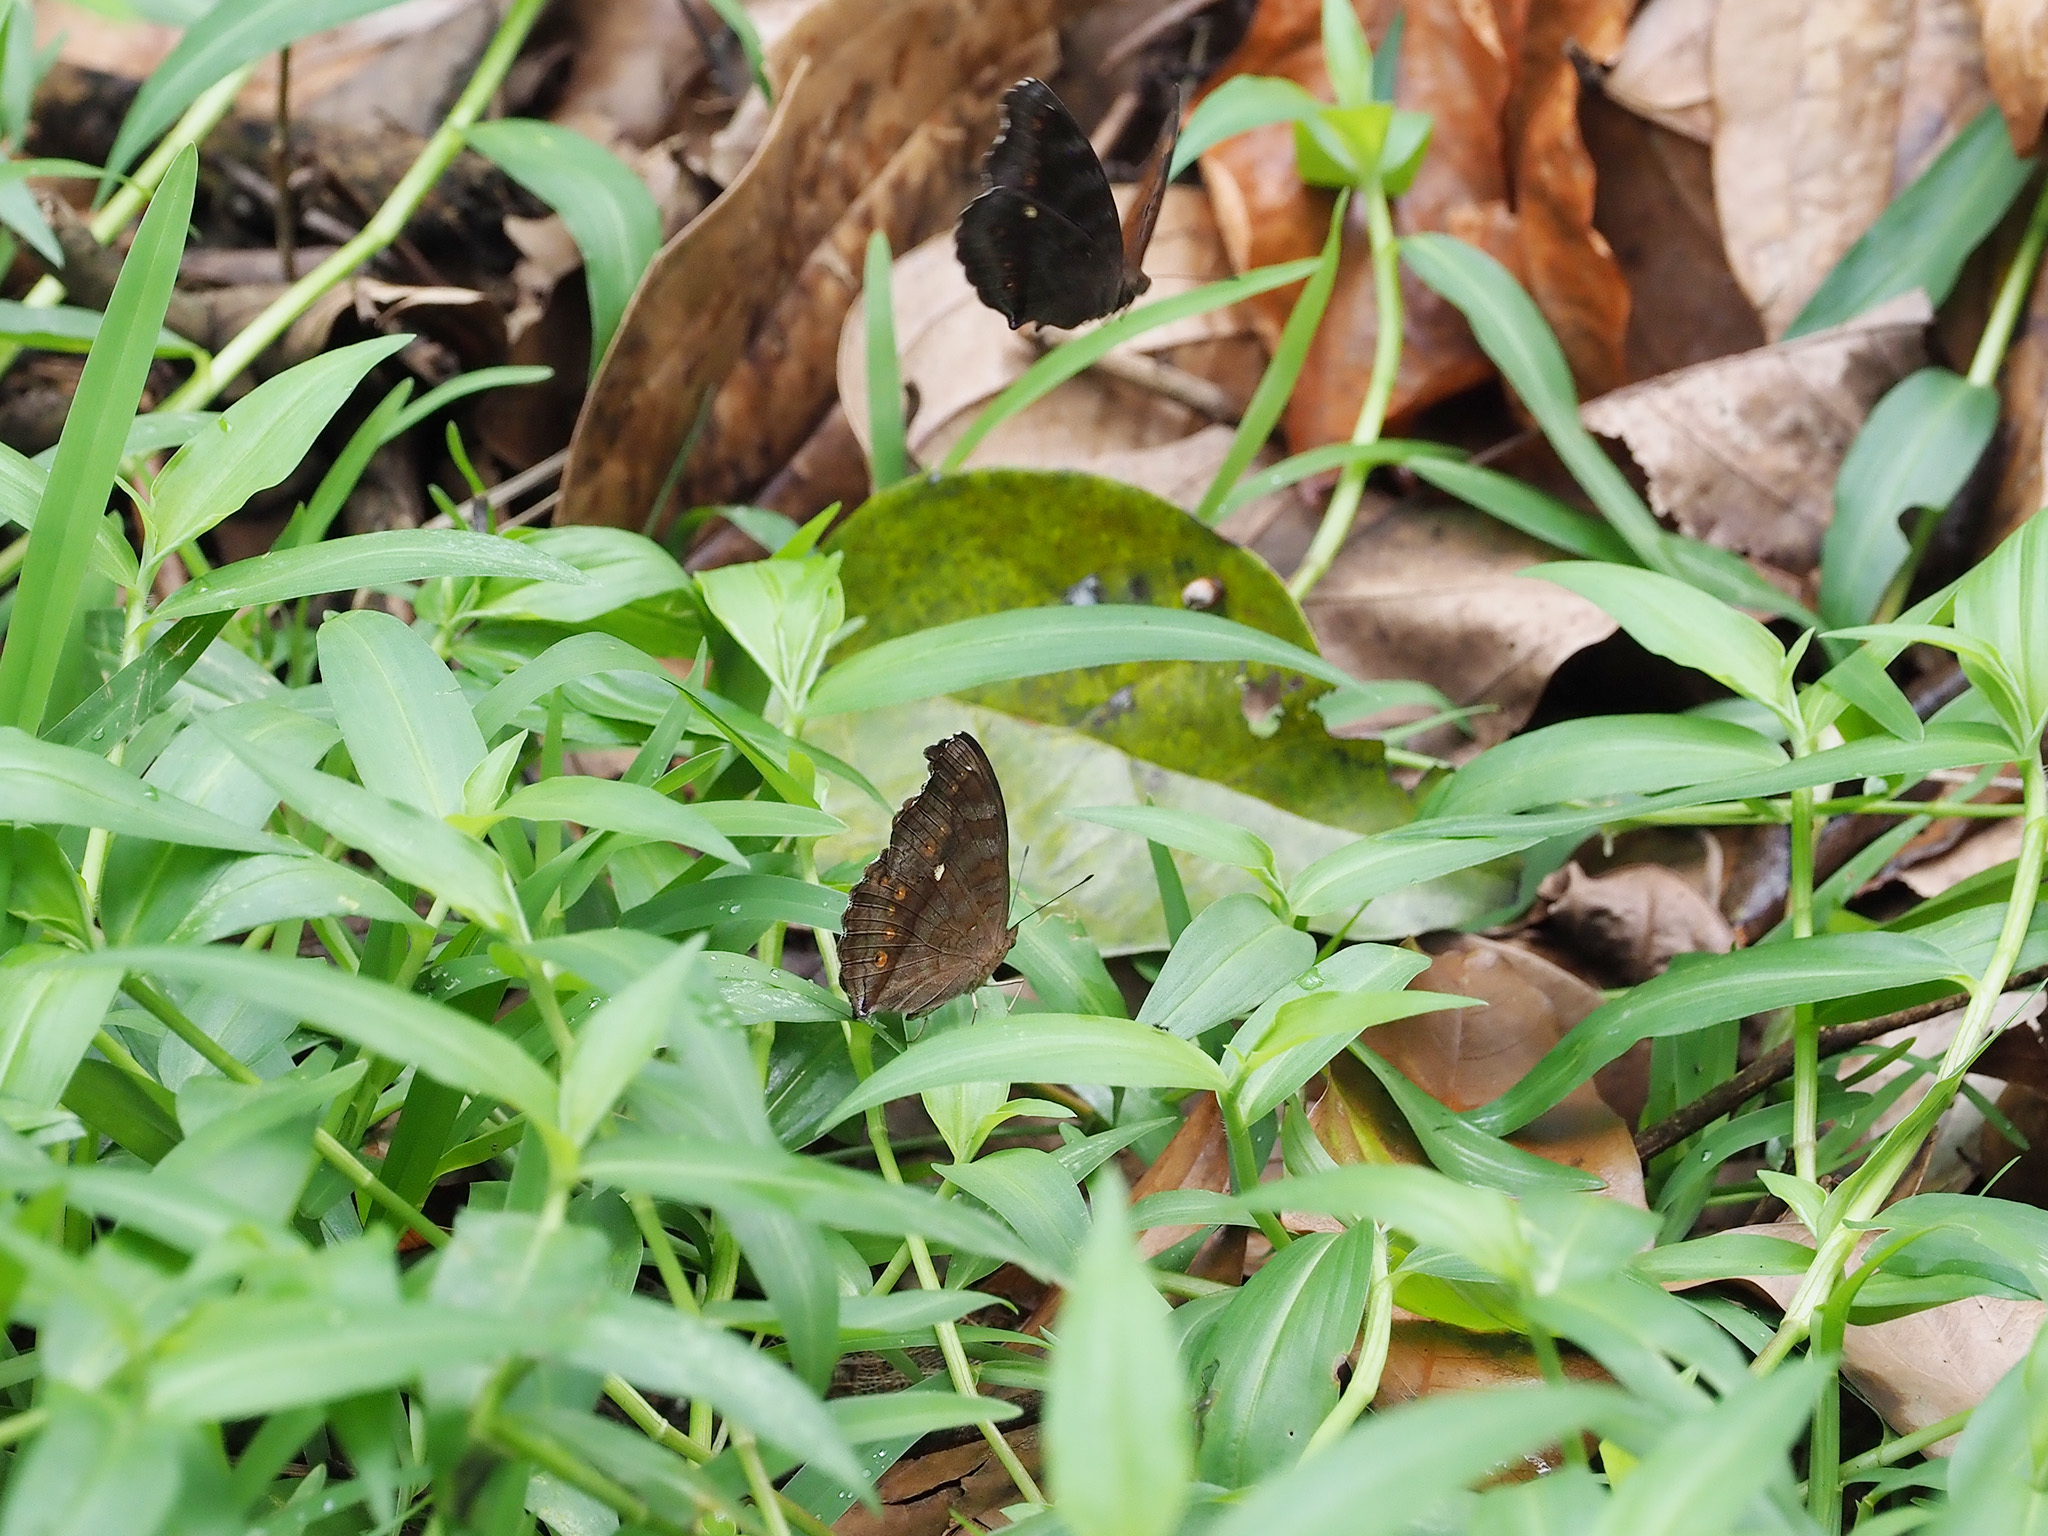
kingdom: Animalia
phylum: Arthropoda
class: Insecta
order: Lepidoptera
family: Nymphalidae
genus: Junonia
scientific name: Junonia hedonia
